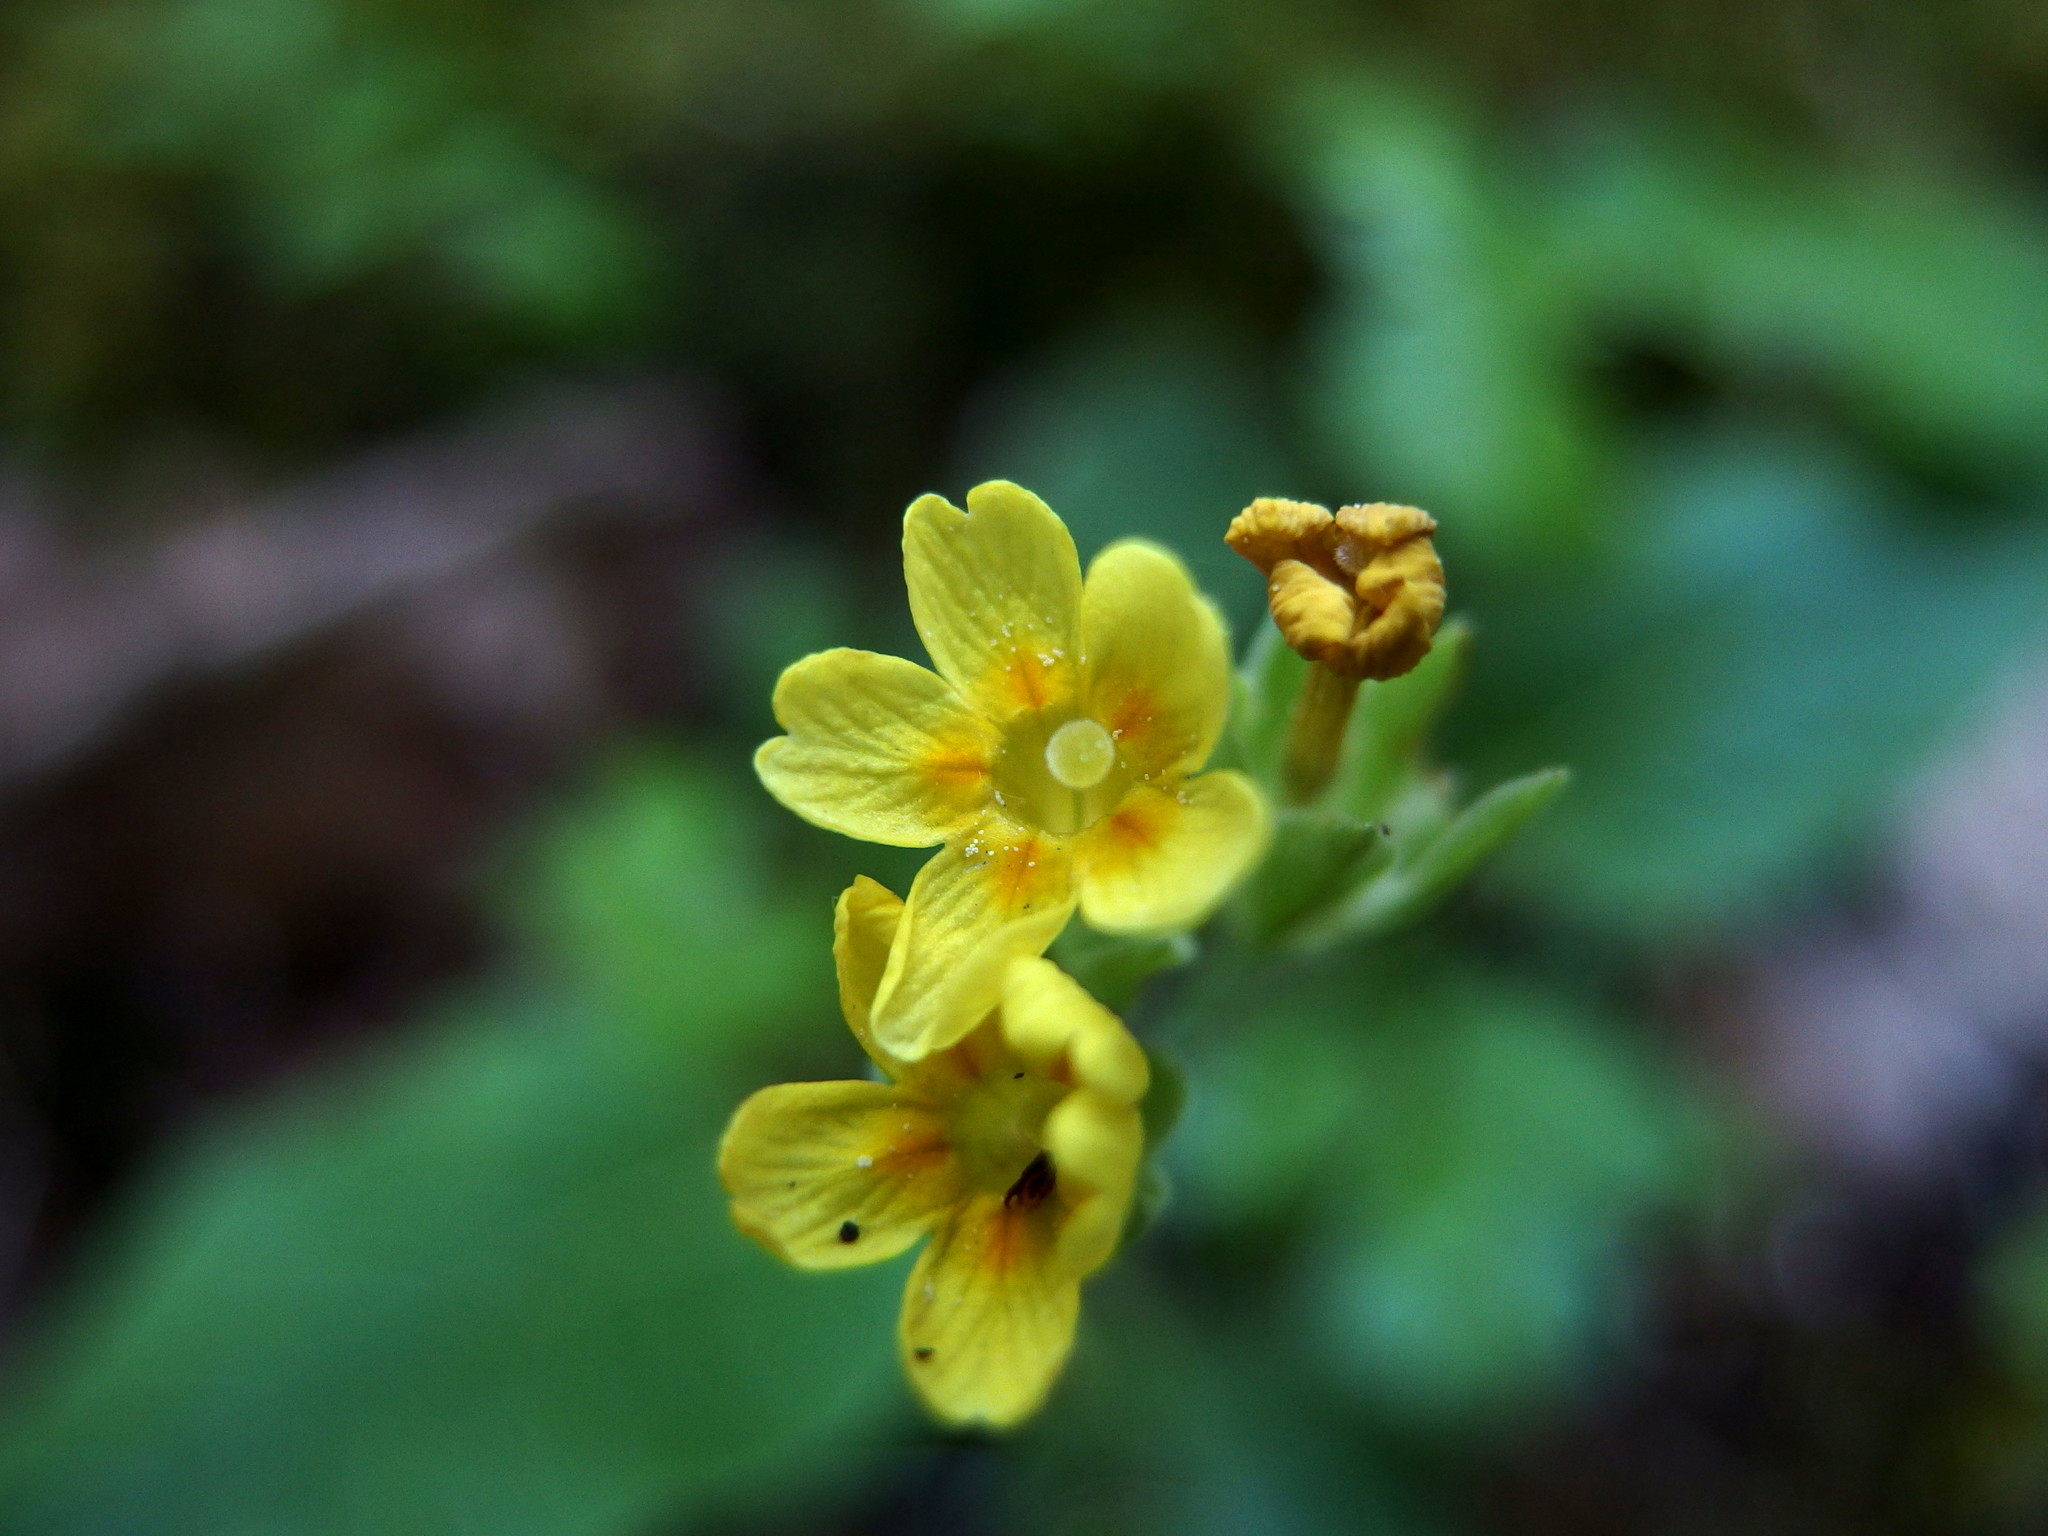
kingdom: Plantae
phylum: Tracheophyta
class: Magnoliopsida
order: Ericales
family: Primulaceae
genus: Primula
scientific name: Primula veris
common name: Cowslip
